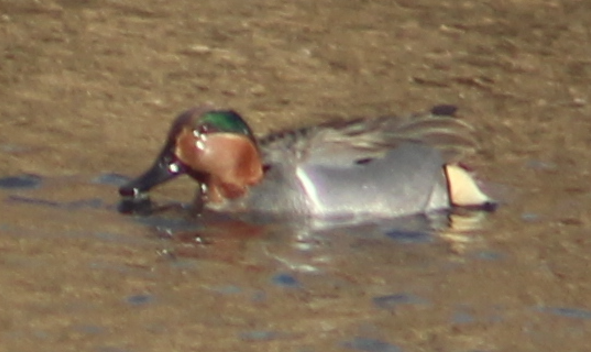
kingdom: Animalia
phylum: Chordata
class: Aves
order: Anseriformes
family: Anatidae
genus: Anas
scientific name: Anas crecca
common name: Eurasian teal
